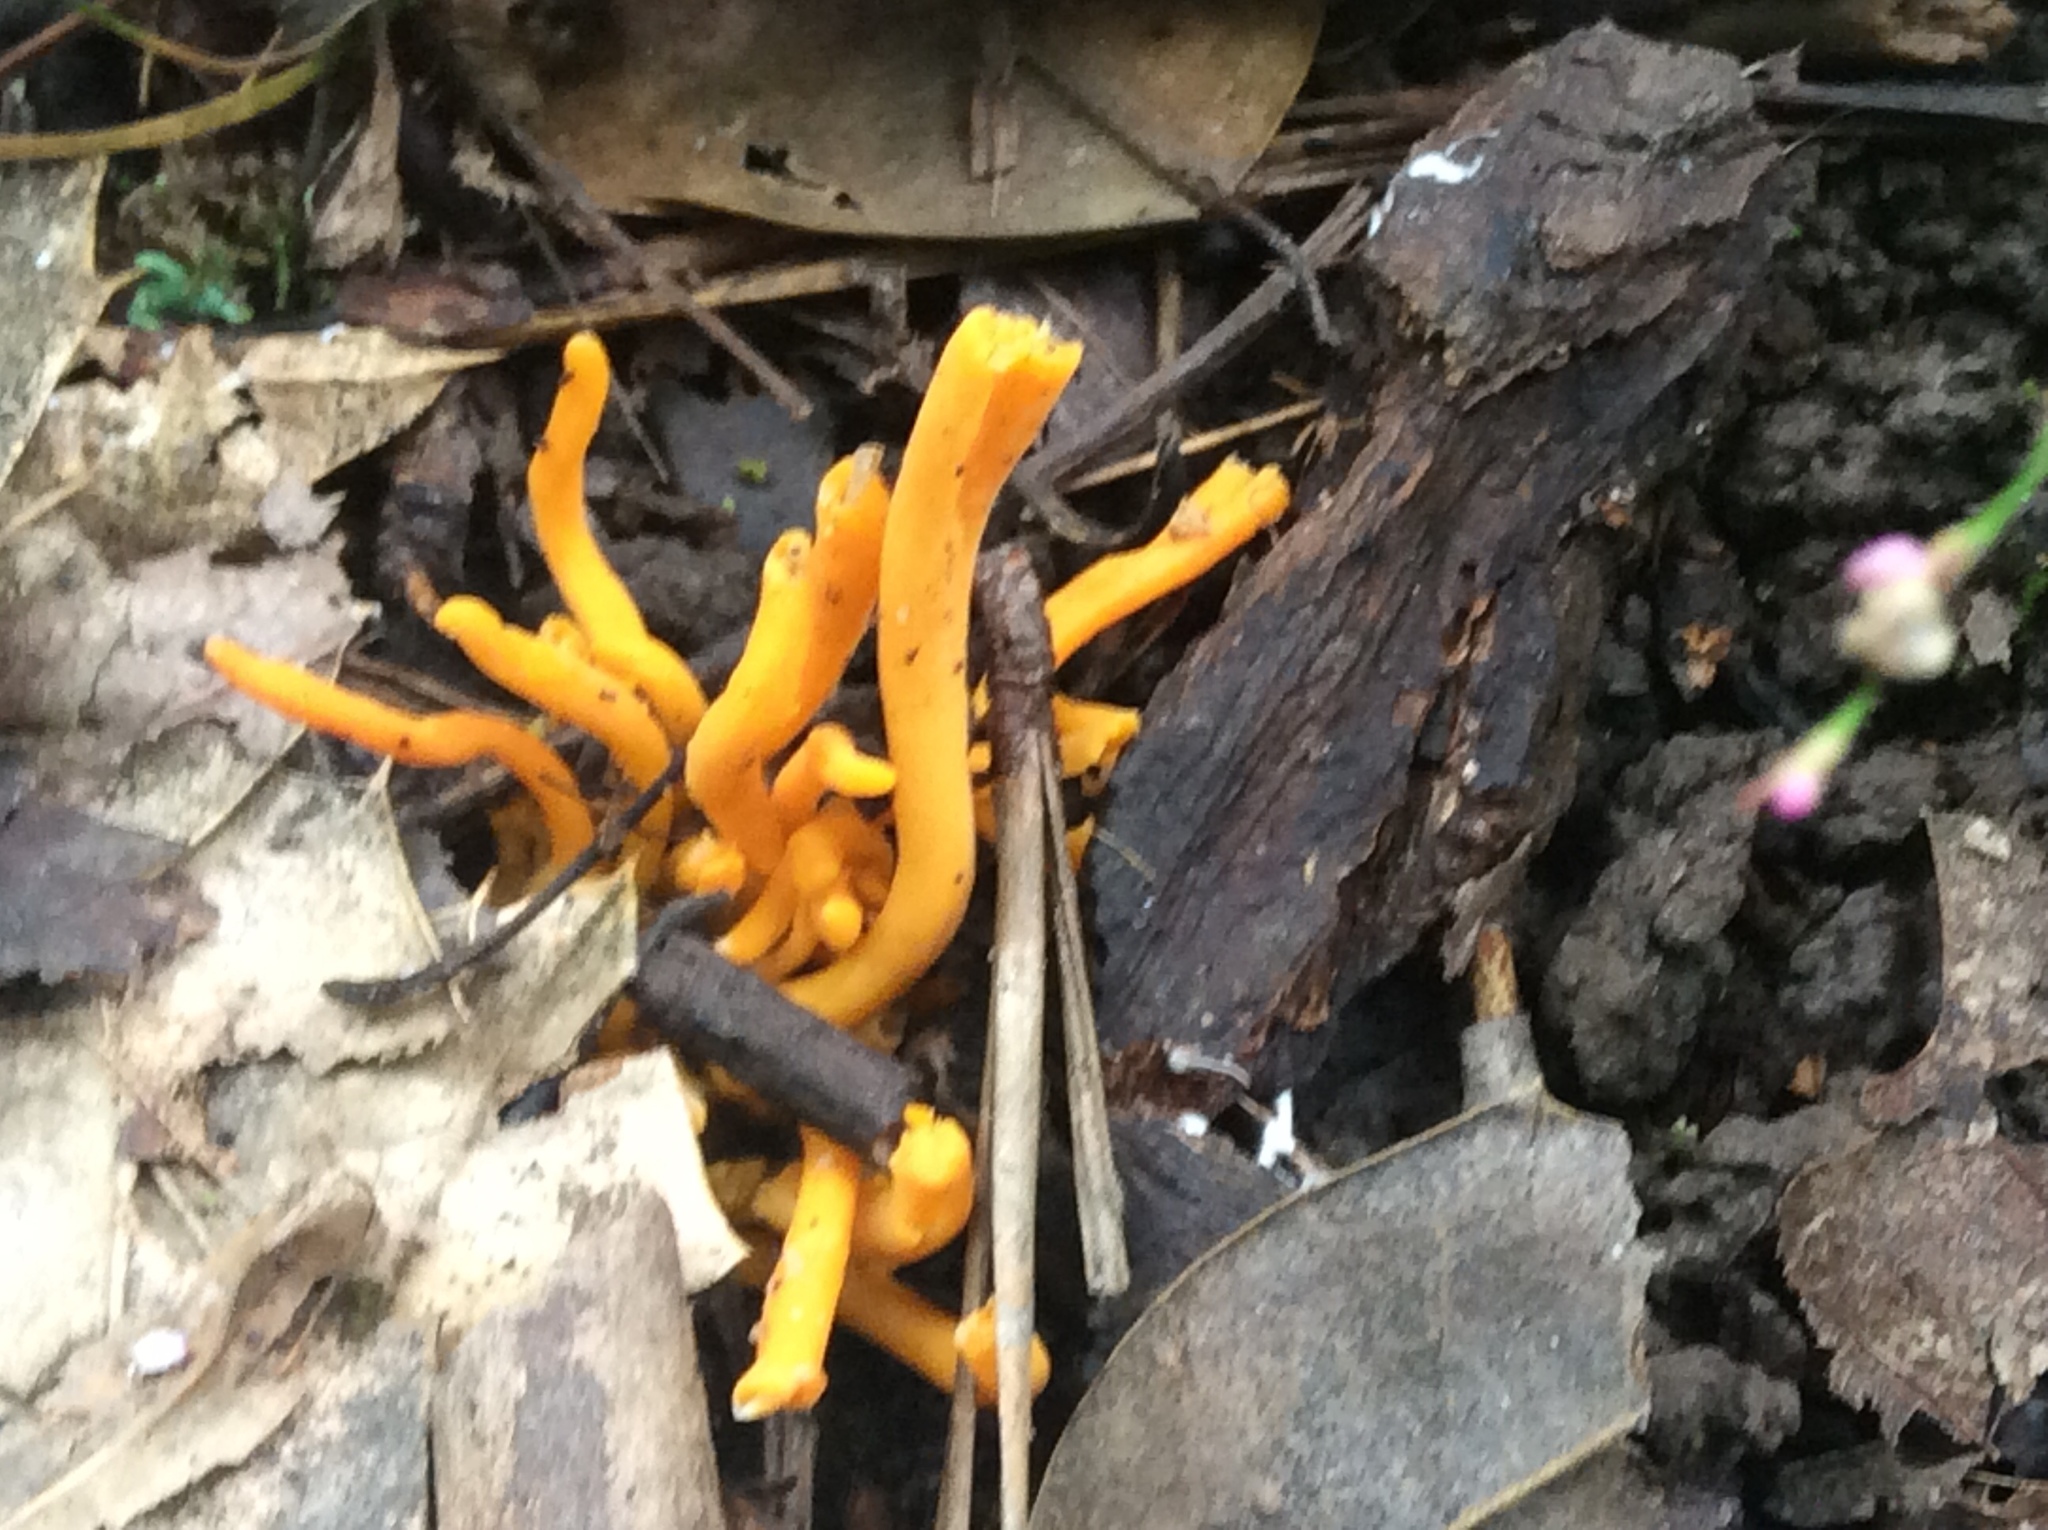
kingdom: Fungi
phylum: Basidiomycota
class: Agaricomycetes
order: Agaricales
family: Clavariaceae
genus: Clavulinopsis
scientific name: Clavulinopsis aurantiocinnabarina
